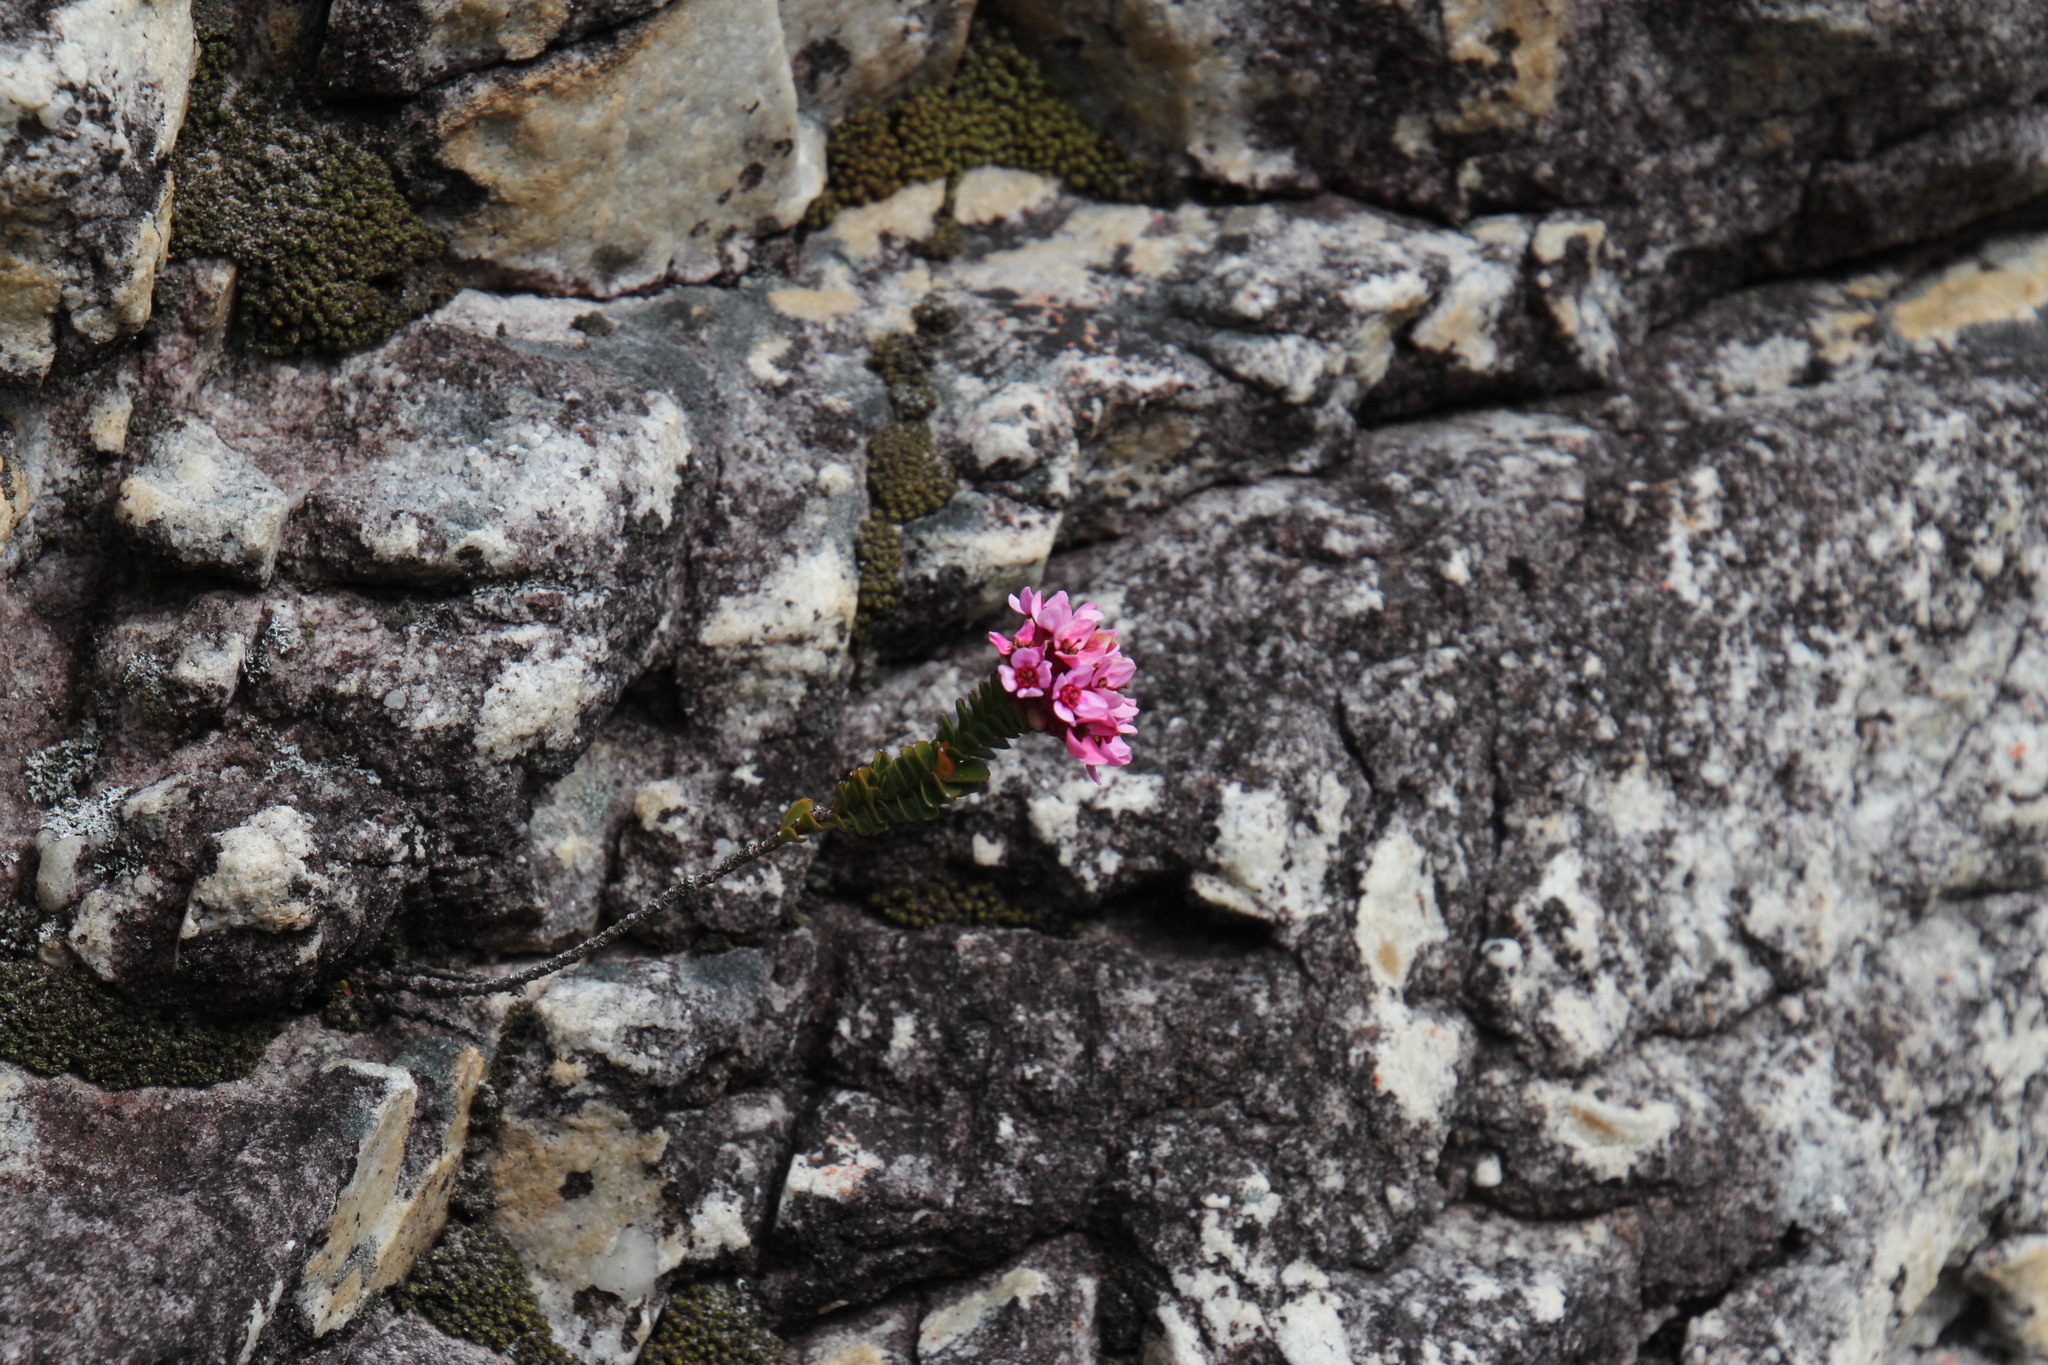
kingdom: Plantae
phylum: Tracheophyta
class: Magnoliopsida
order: Myrtales
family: Penaeaceae
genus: Sonderothamnus
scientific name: Sonderothamnus petraeus
